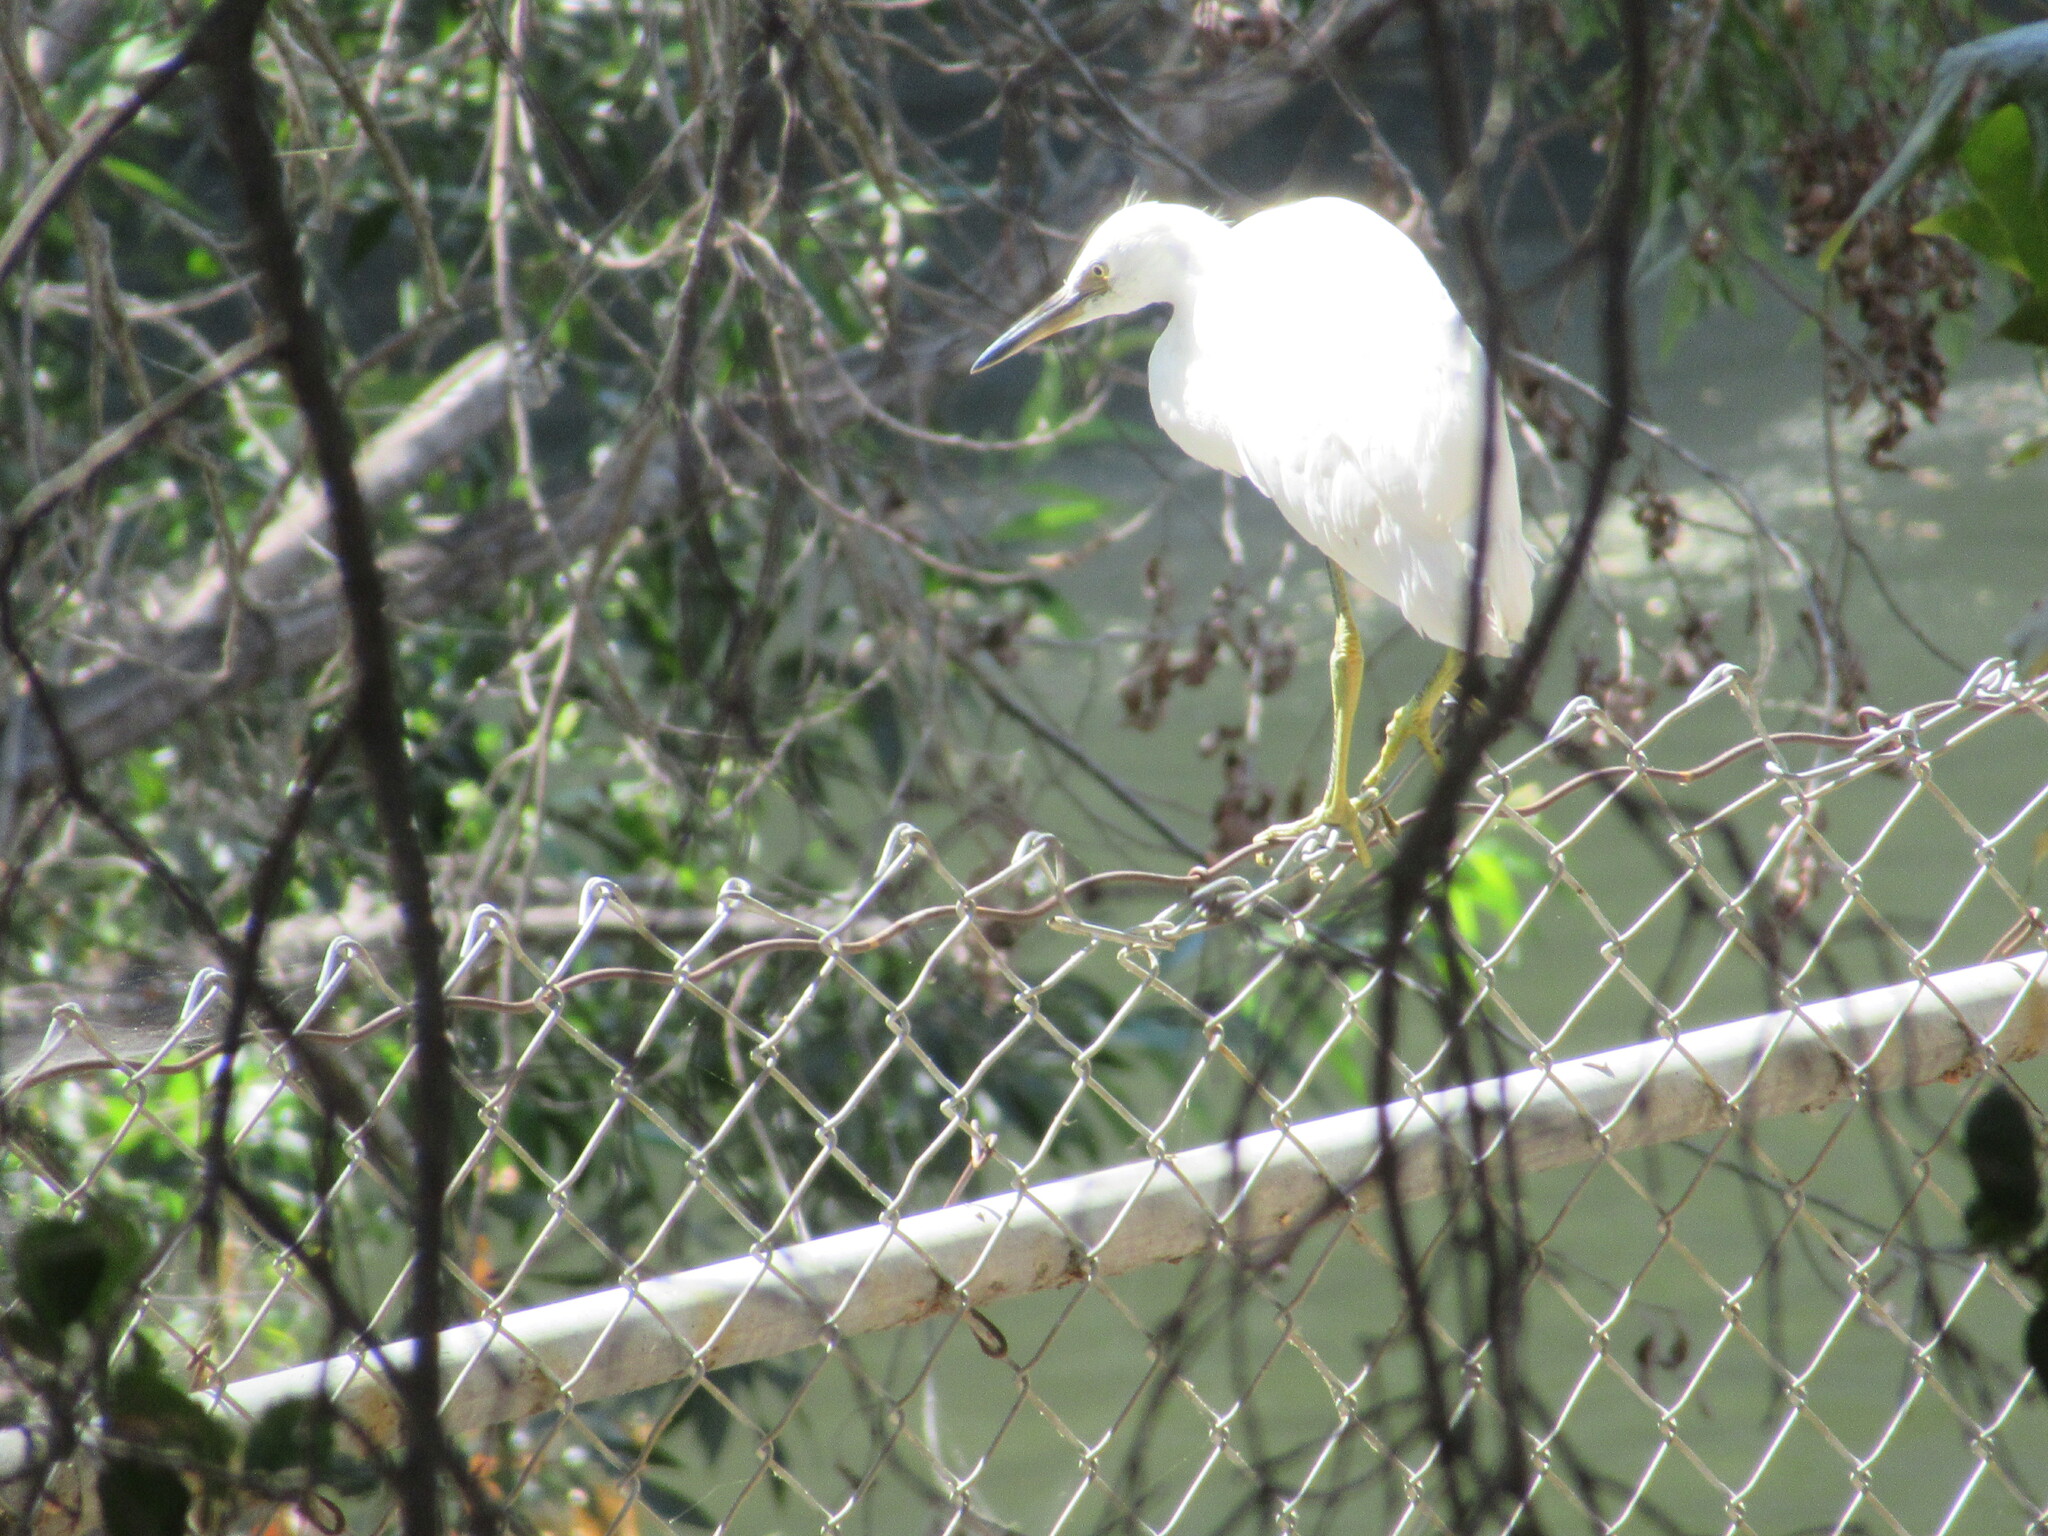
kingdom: Animalia
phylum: Chordata
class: Aves
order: Pelecaniformes
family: Ardeidae
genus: Egretta
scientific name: Egretta thula
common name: Snowy egret
